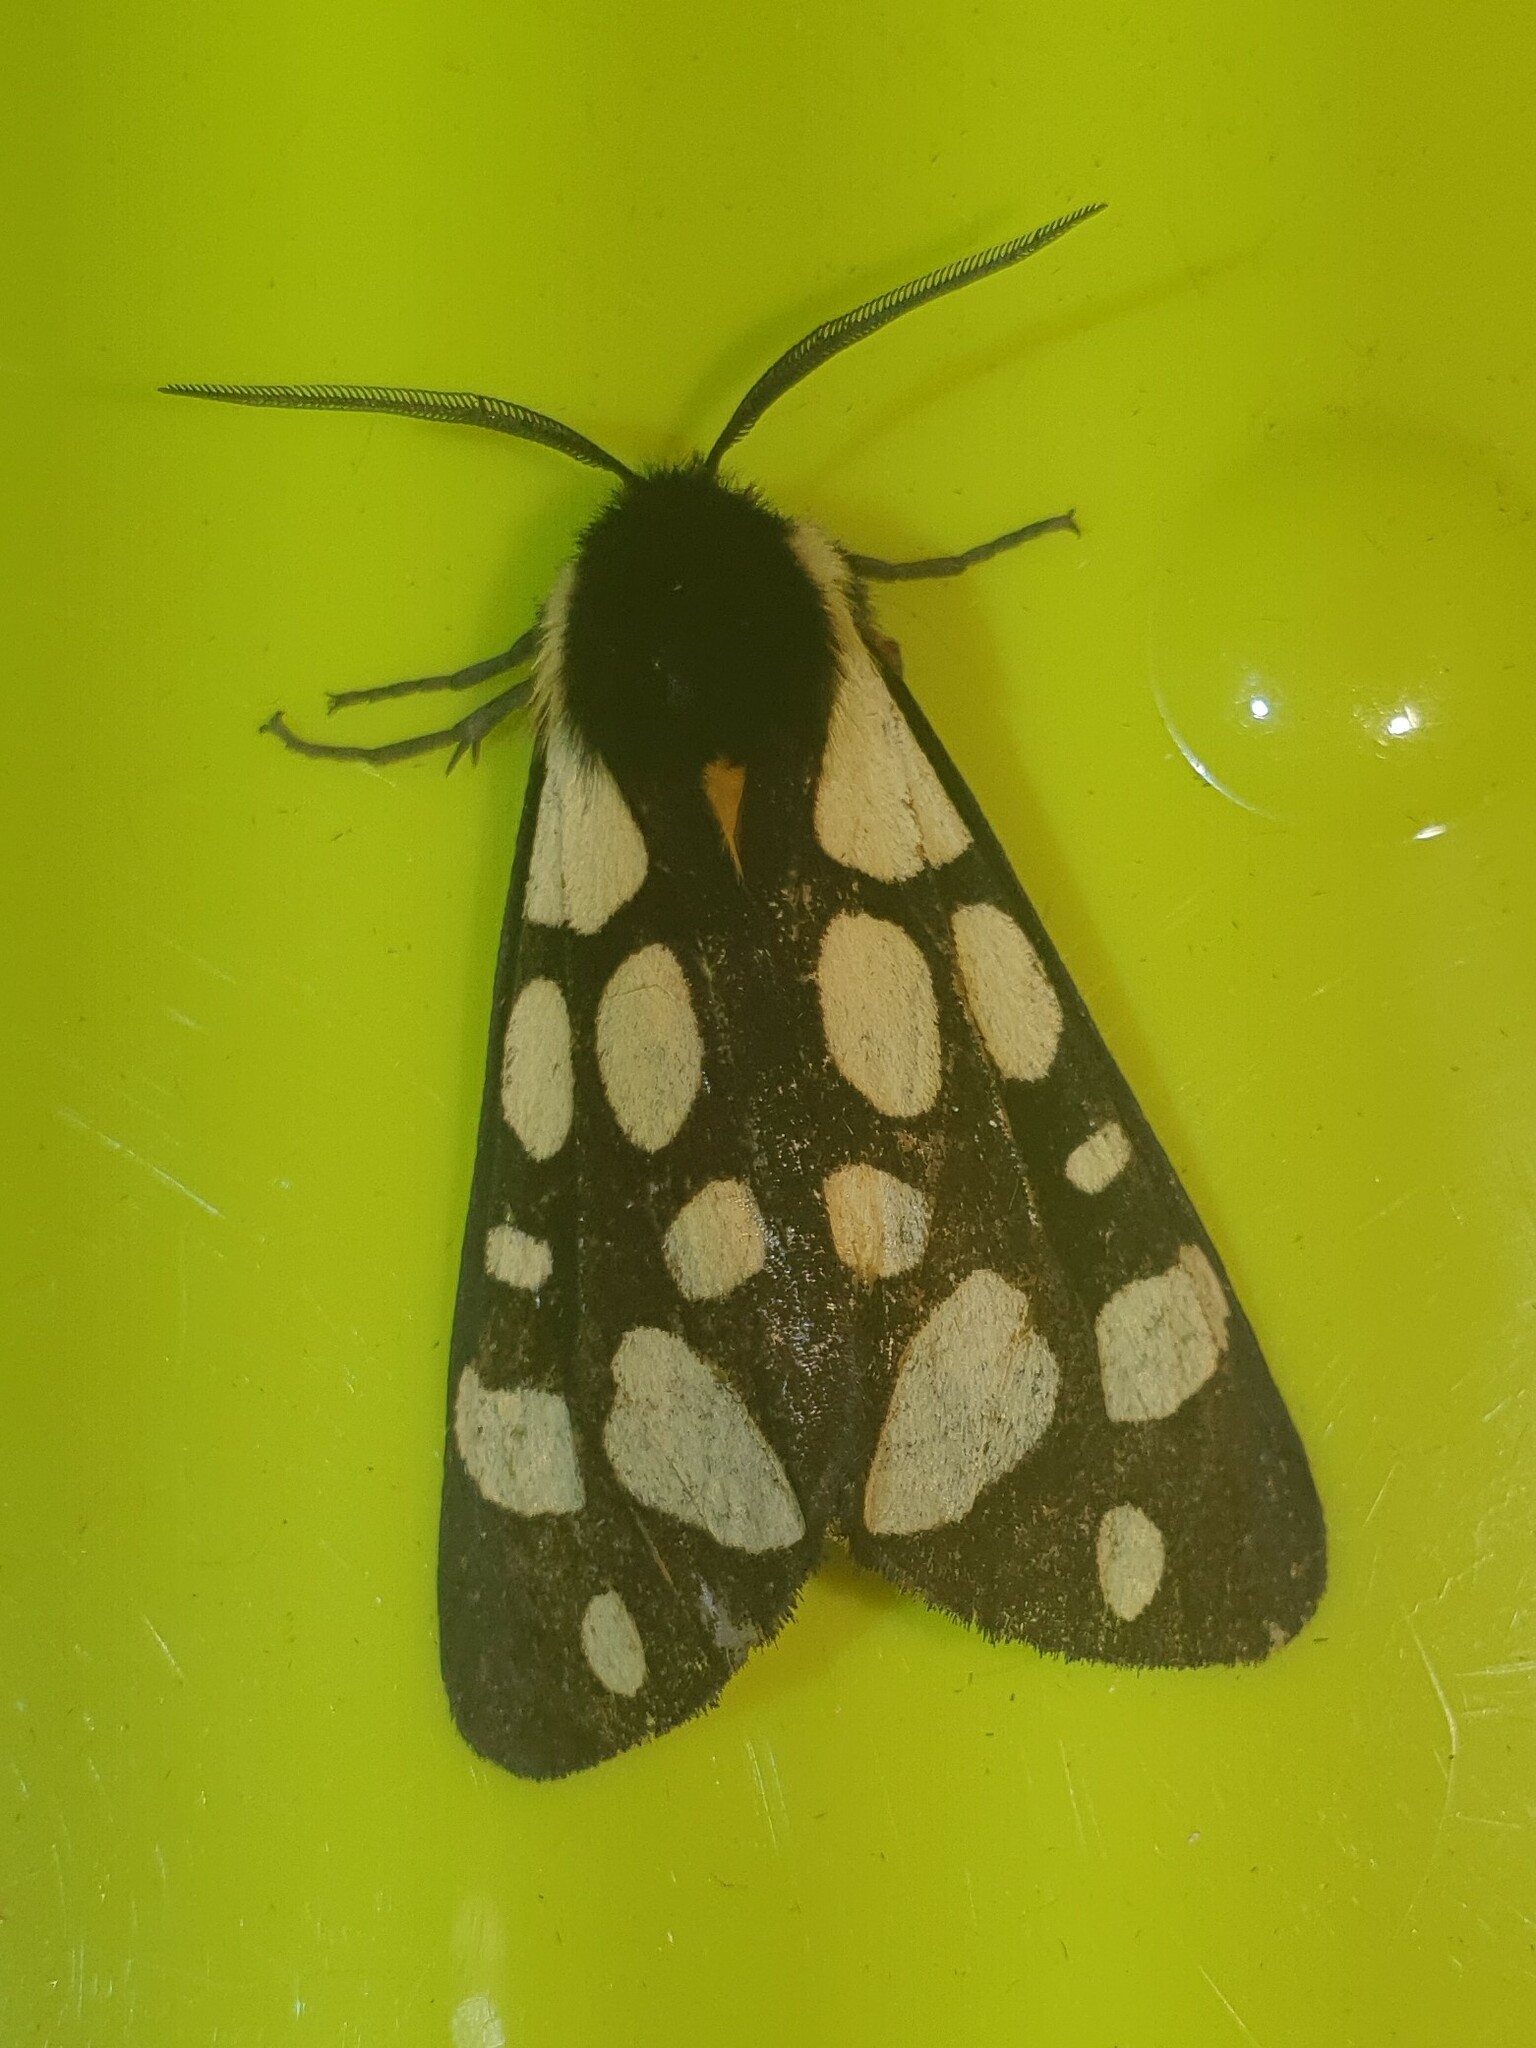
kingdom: Animalia
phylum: Arthropoda
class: Insecta
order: Lepidoptera
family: Erebidae
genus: Epicallia
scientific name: Epicallia villica
